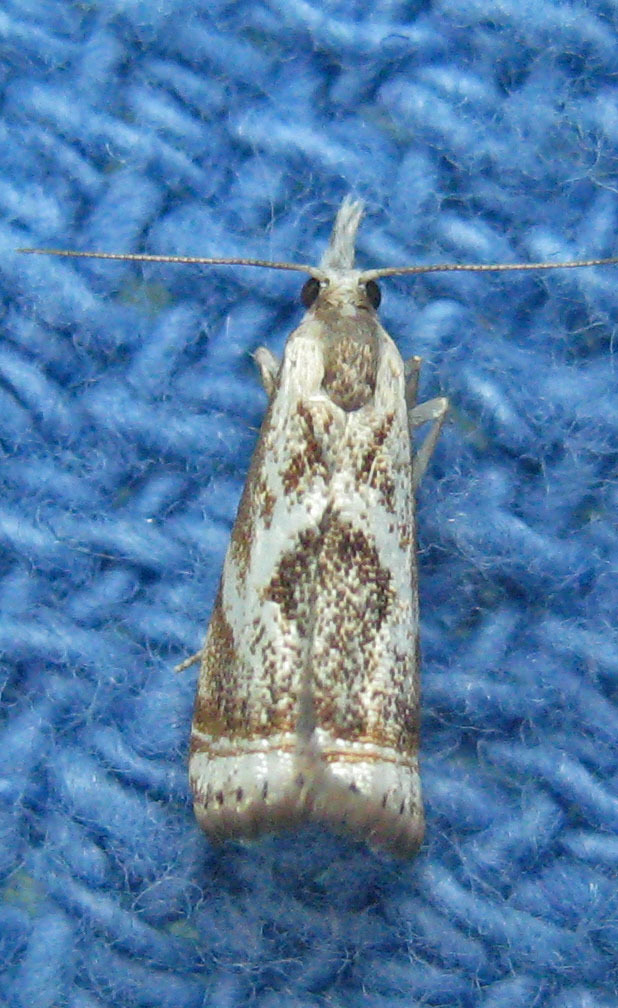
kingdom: Animalia
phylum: Arthropoda
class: Insecta
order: Lepidoptera
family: Crambidae
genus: Microcrambus
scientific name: Microcrambus elegans
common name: Elegant grass-veneer
